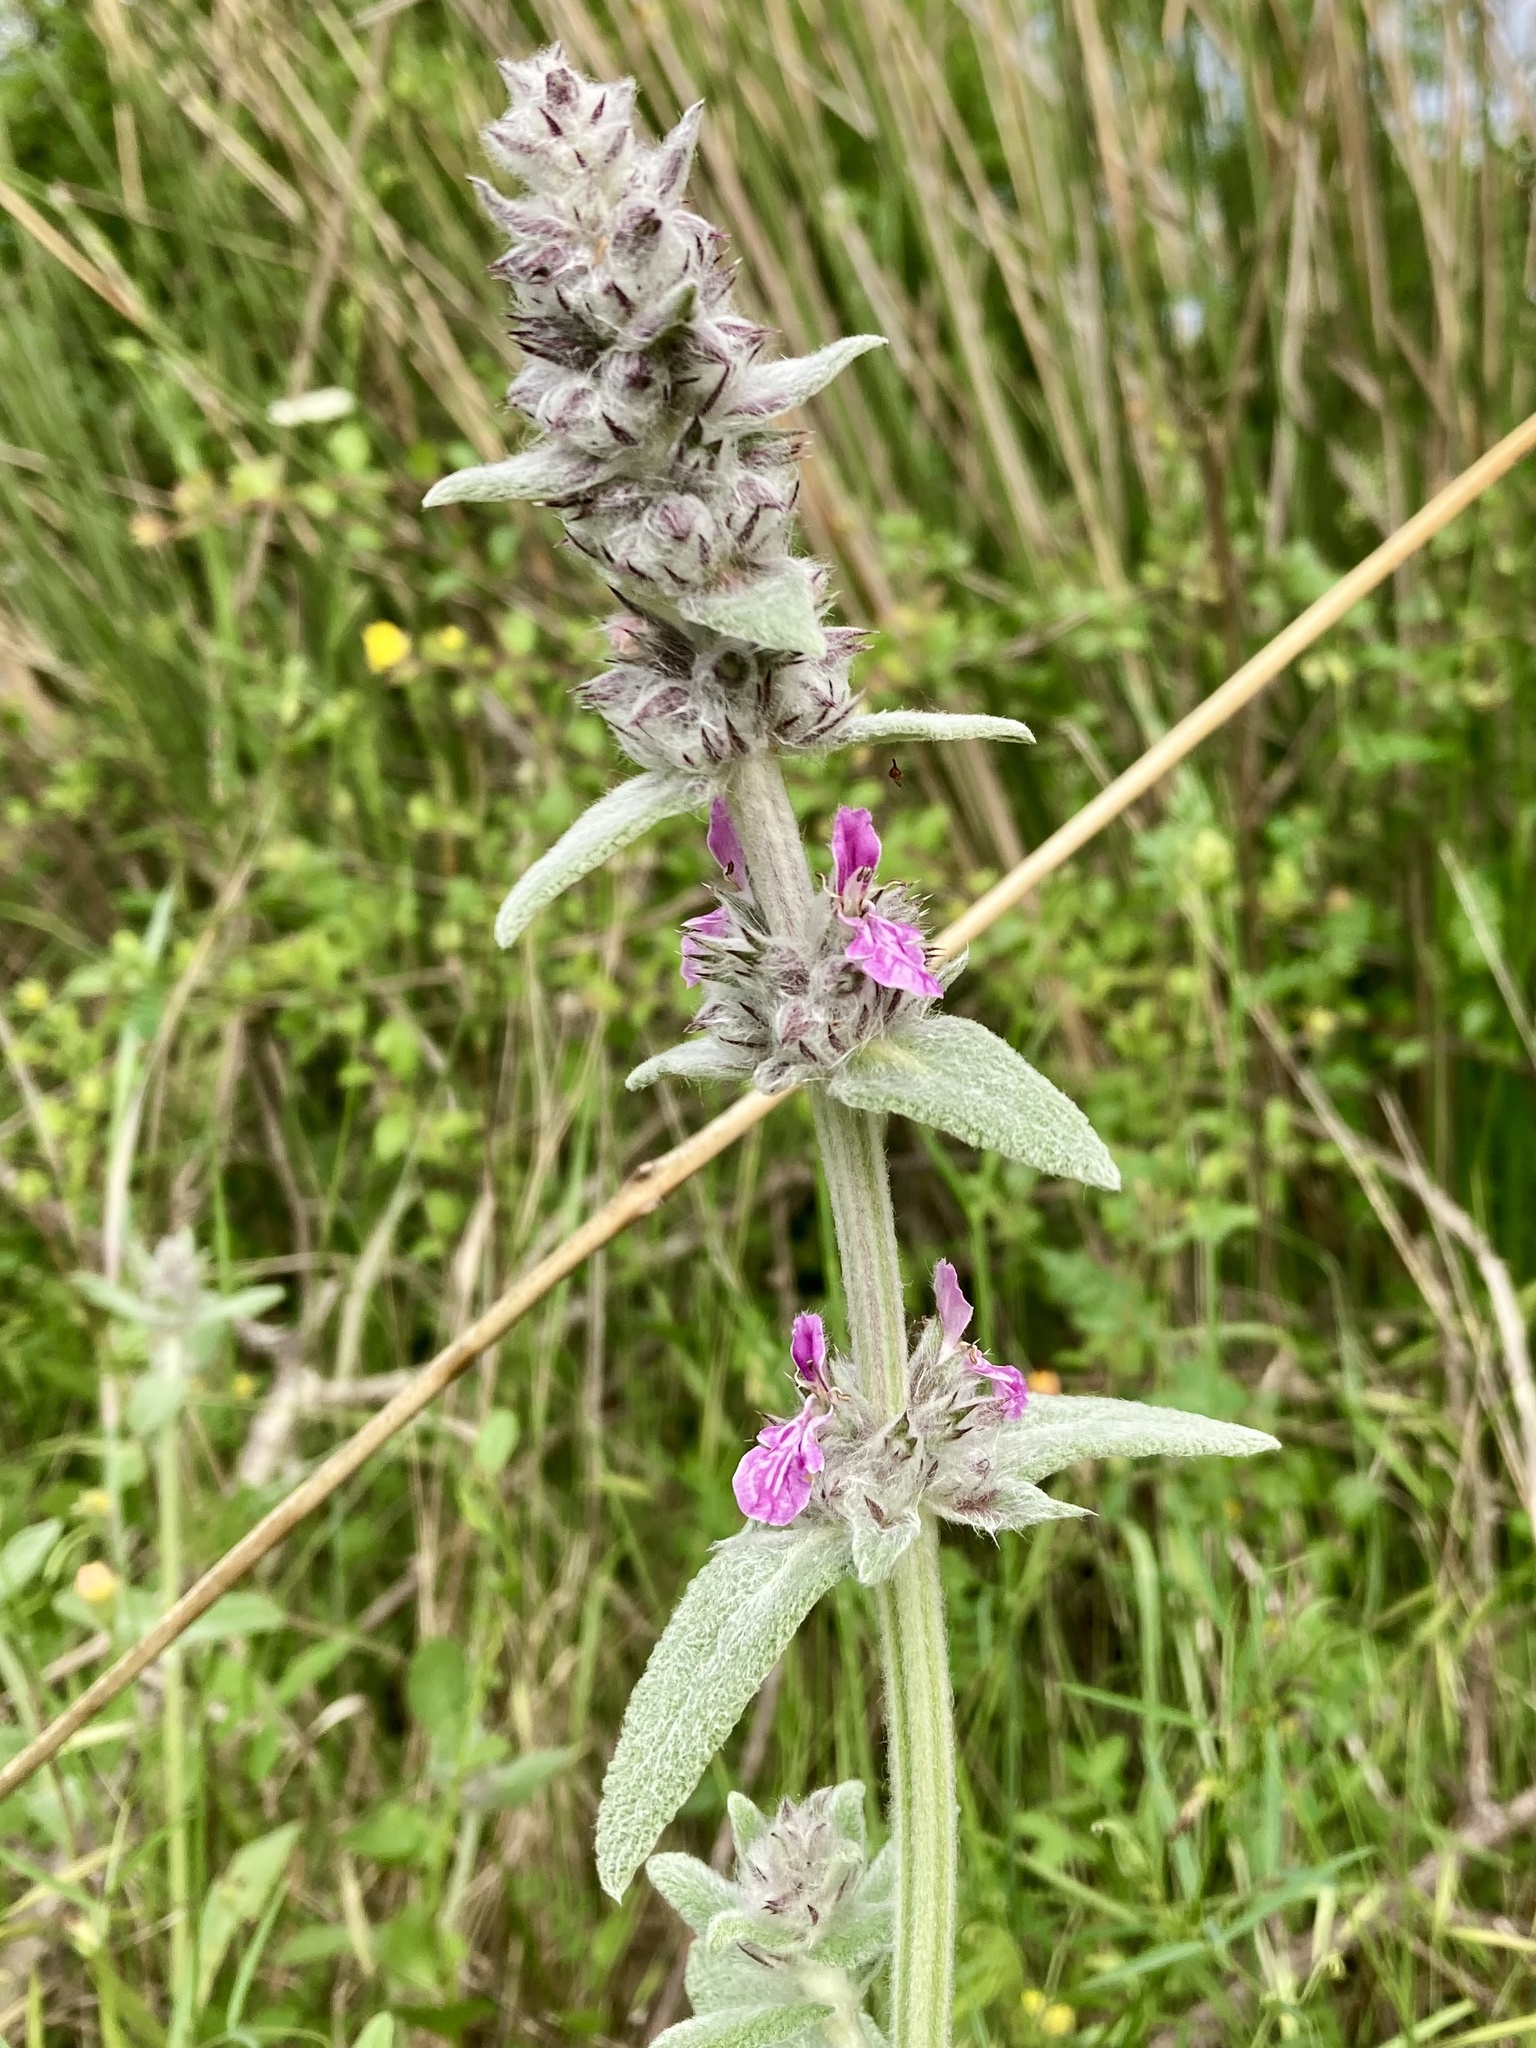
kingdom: Plantae
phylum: Tracheophyta
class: Magnoliopsida
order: Lamiales
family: Lamiaceae
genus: Stachys
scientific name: Stachys cretica
